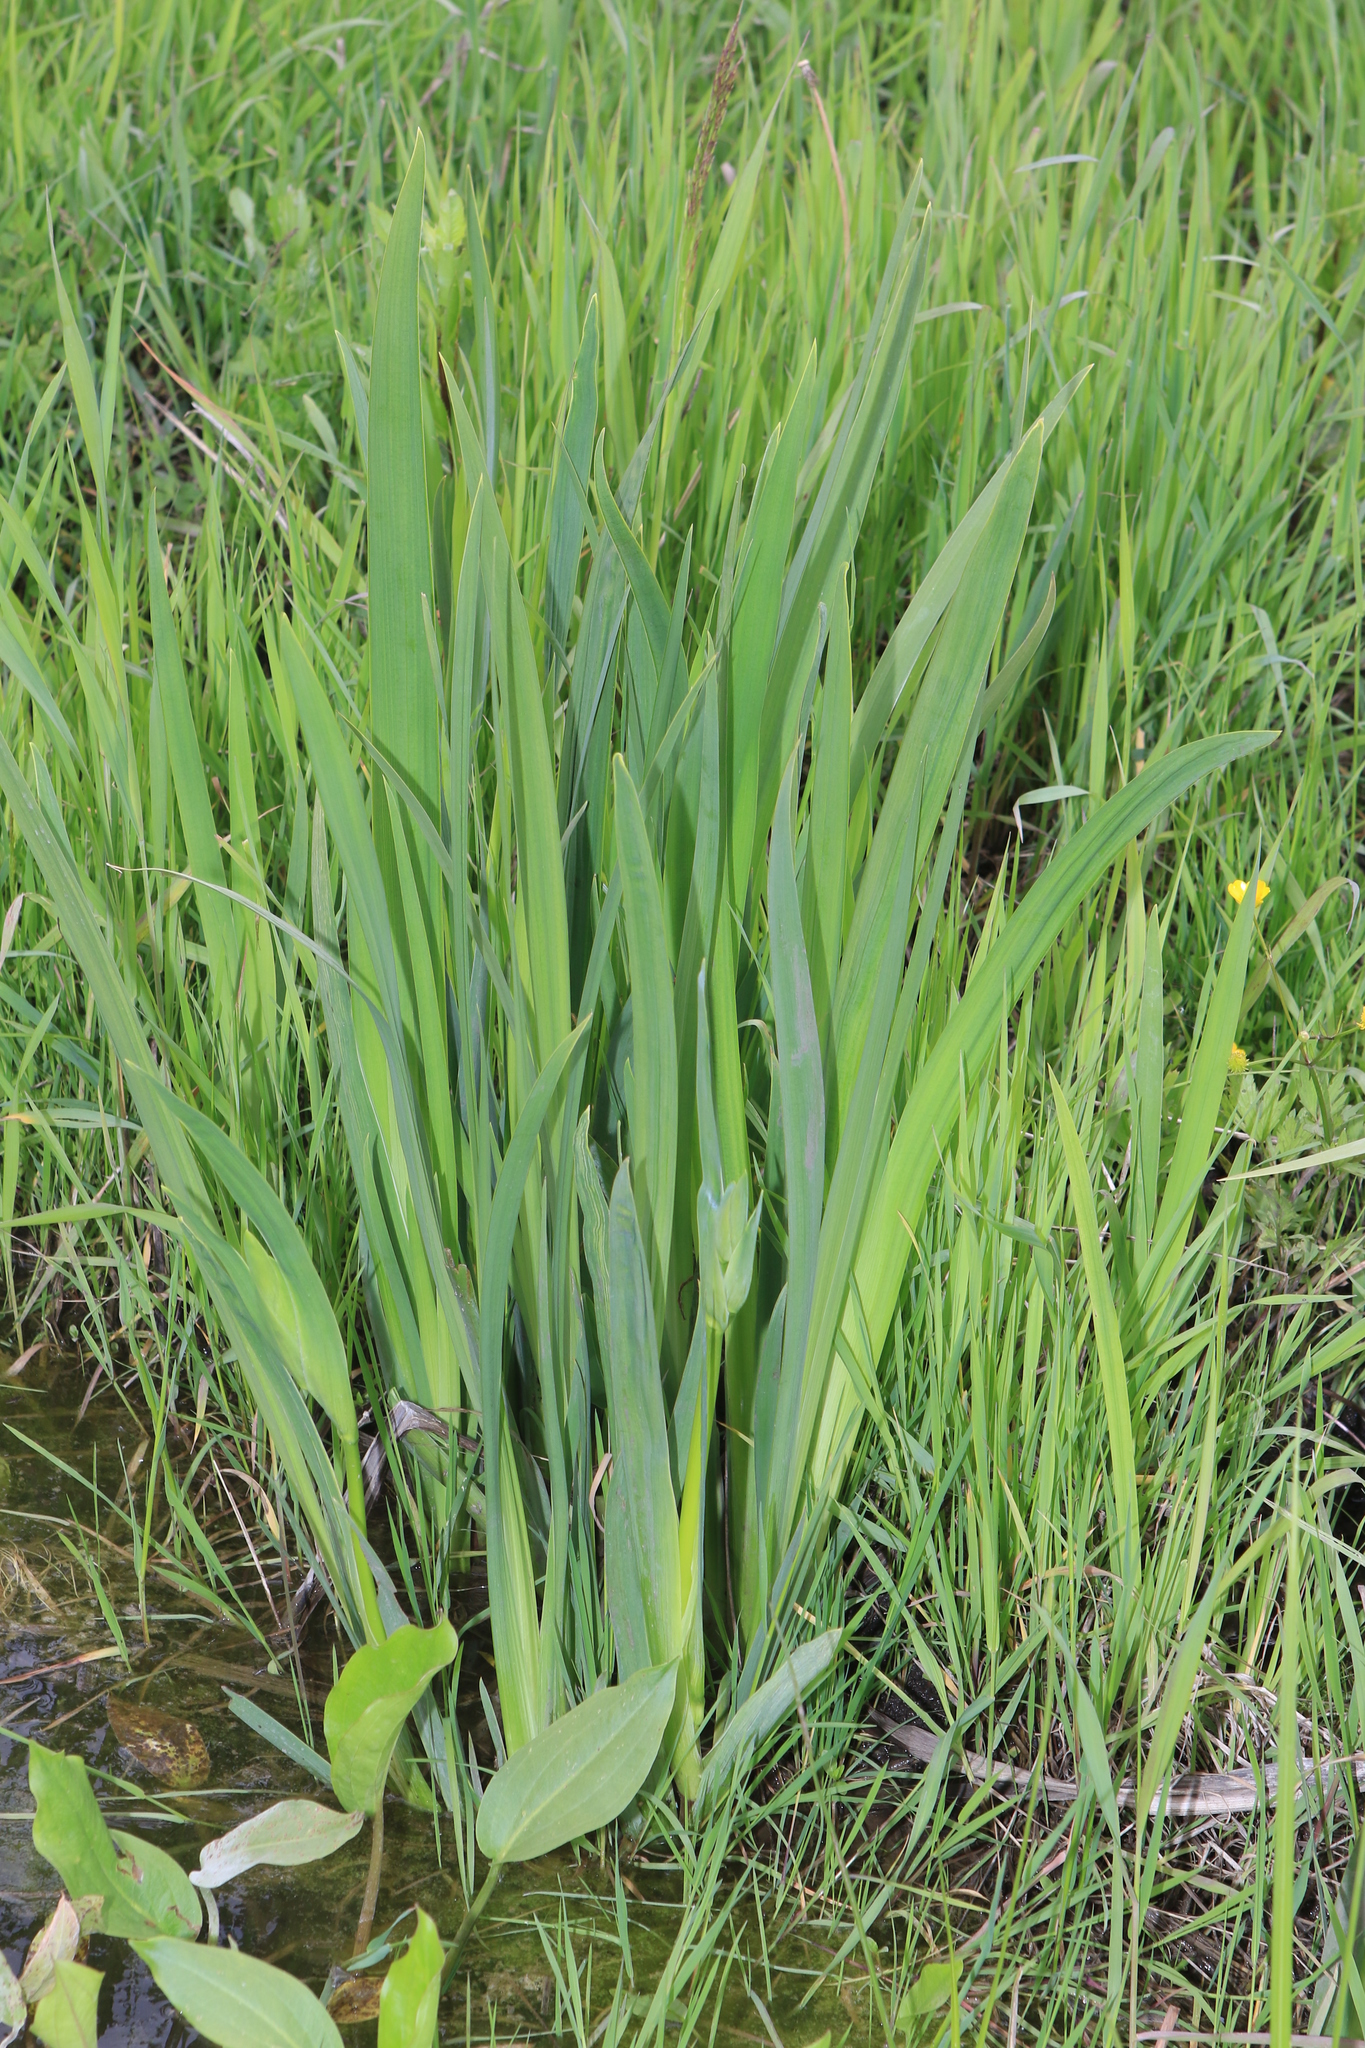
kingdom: Plantae
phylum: Tracheophyta
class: Liliopsida
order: Asparagales
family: Iridaceae
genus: Iris
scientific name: Iris pseudacorus
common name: Yellow flag
